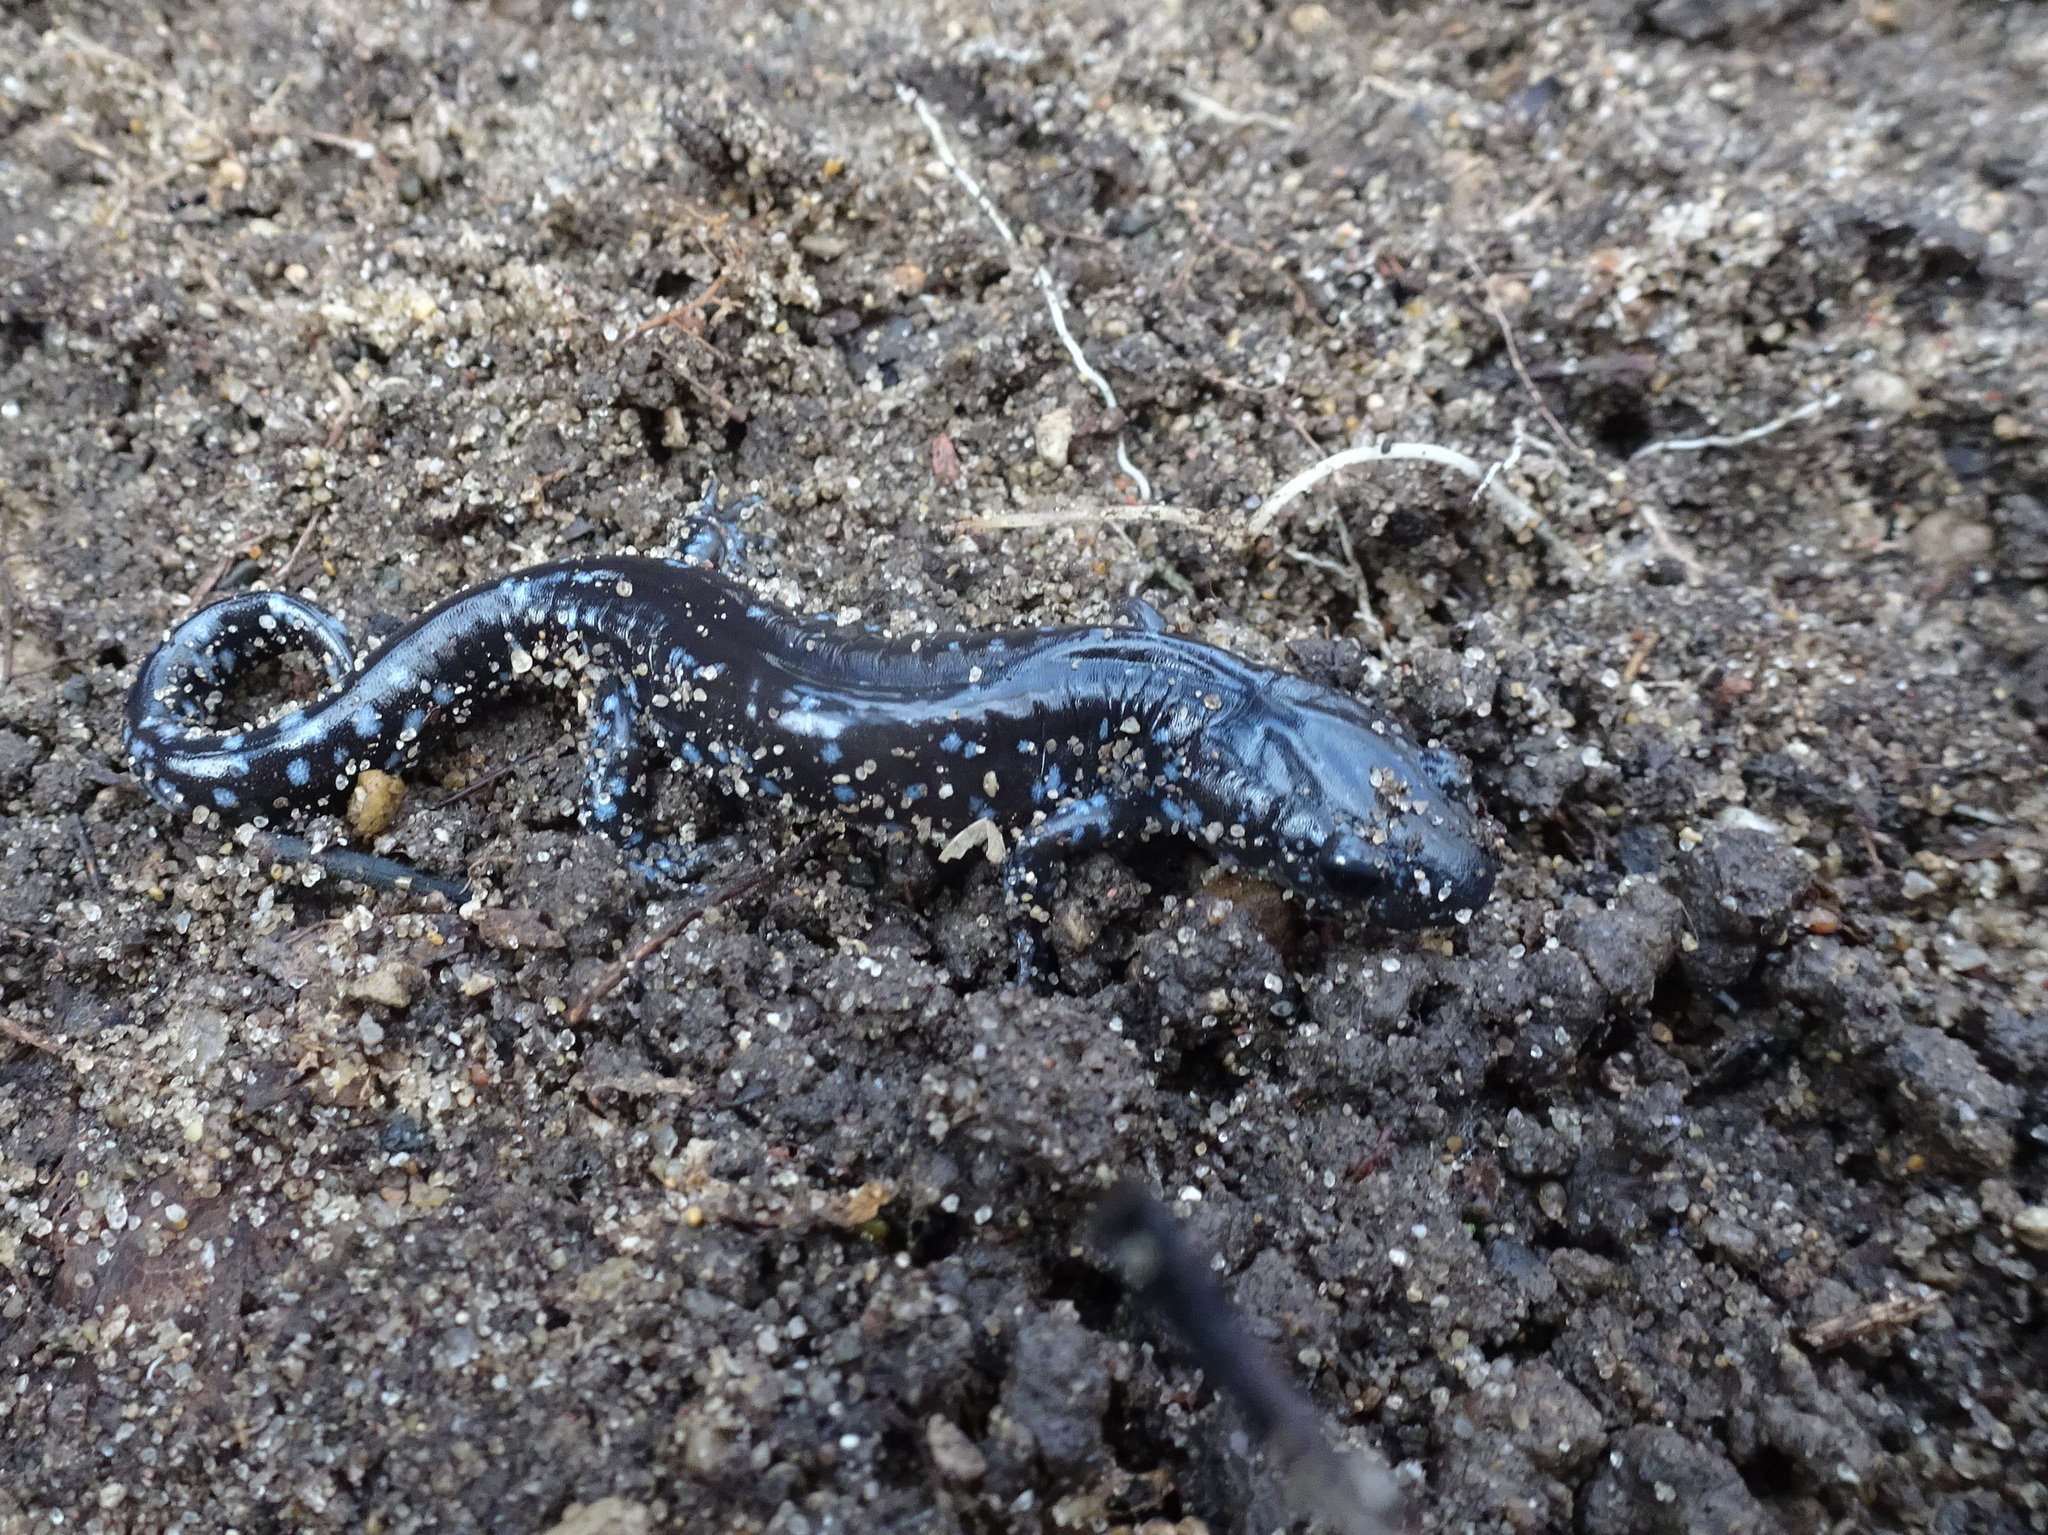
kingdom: Animalia
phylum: Chordata
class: Amphibia
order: Caudata
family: Ambystomatidae
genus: Ambystoma
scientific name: Ambystoma laterale
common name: Blue-spotted salamander
